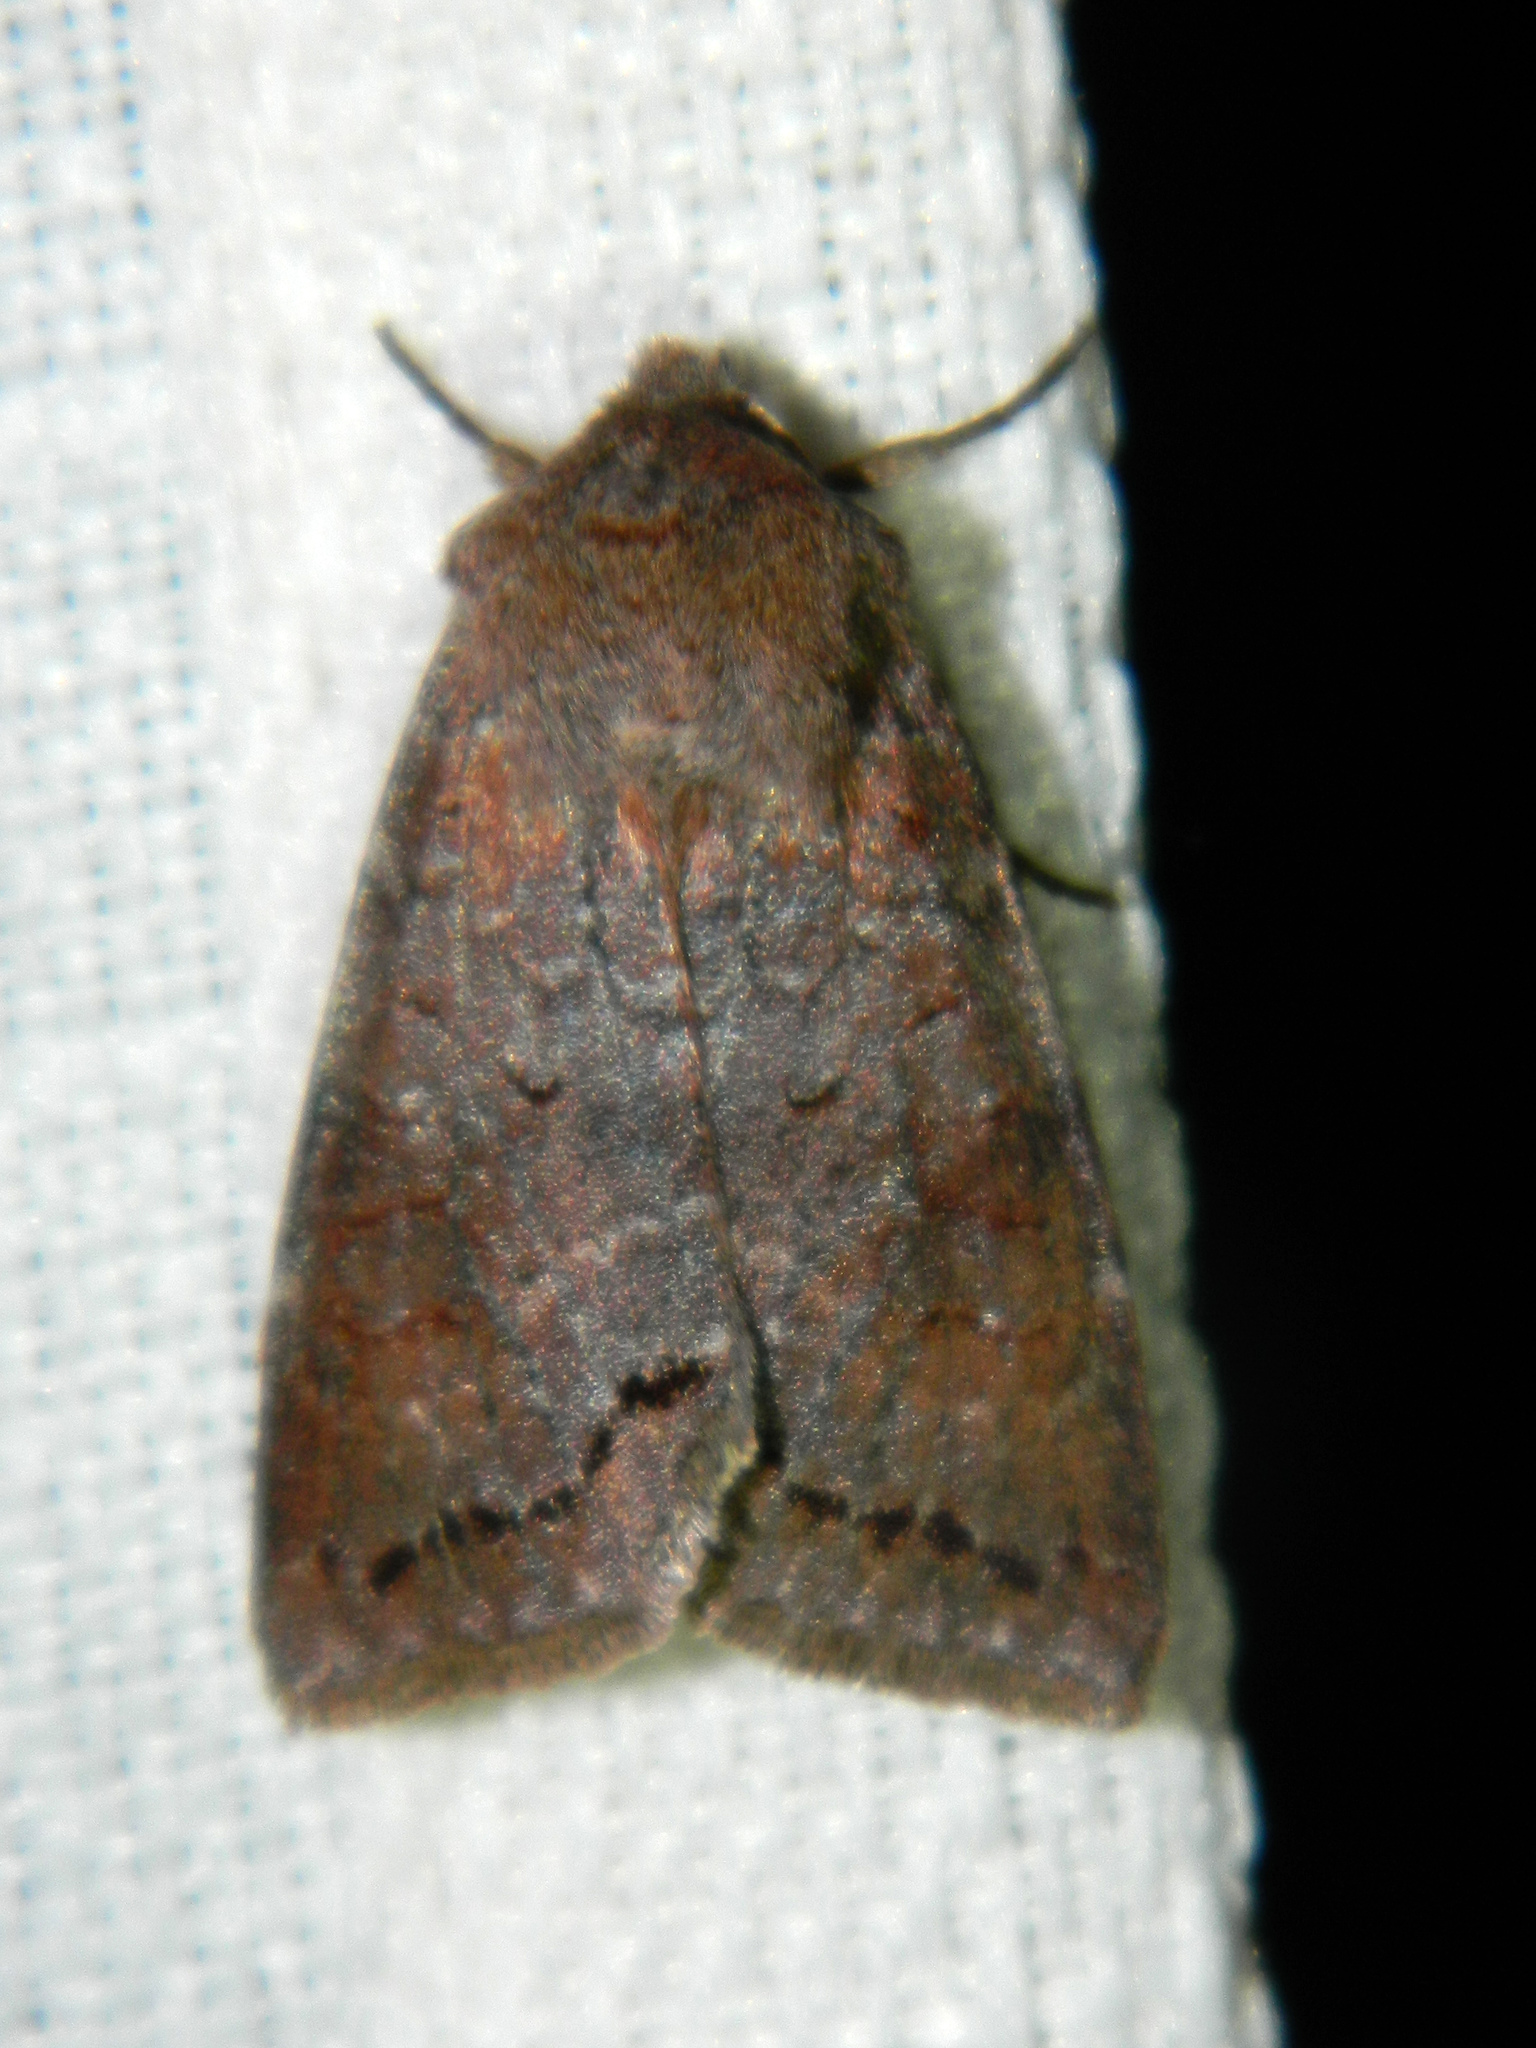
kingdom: Animalia
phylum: Arthropoda
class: Insecta
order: Lepidoptera
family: Noctuidae
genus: Orthosia
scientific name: Orthosia revicta
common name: Rusty whitesided caterpillar
